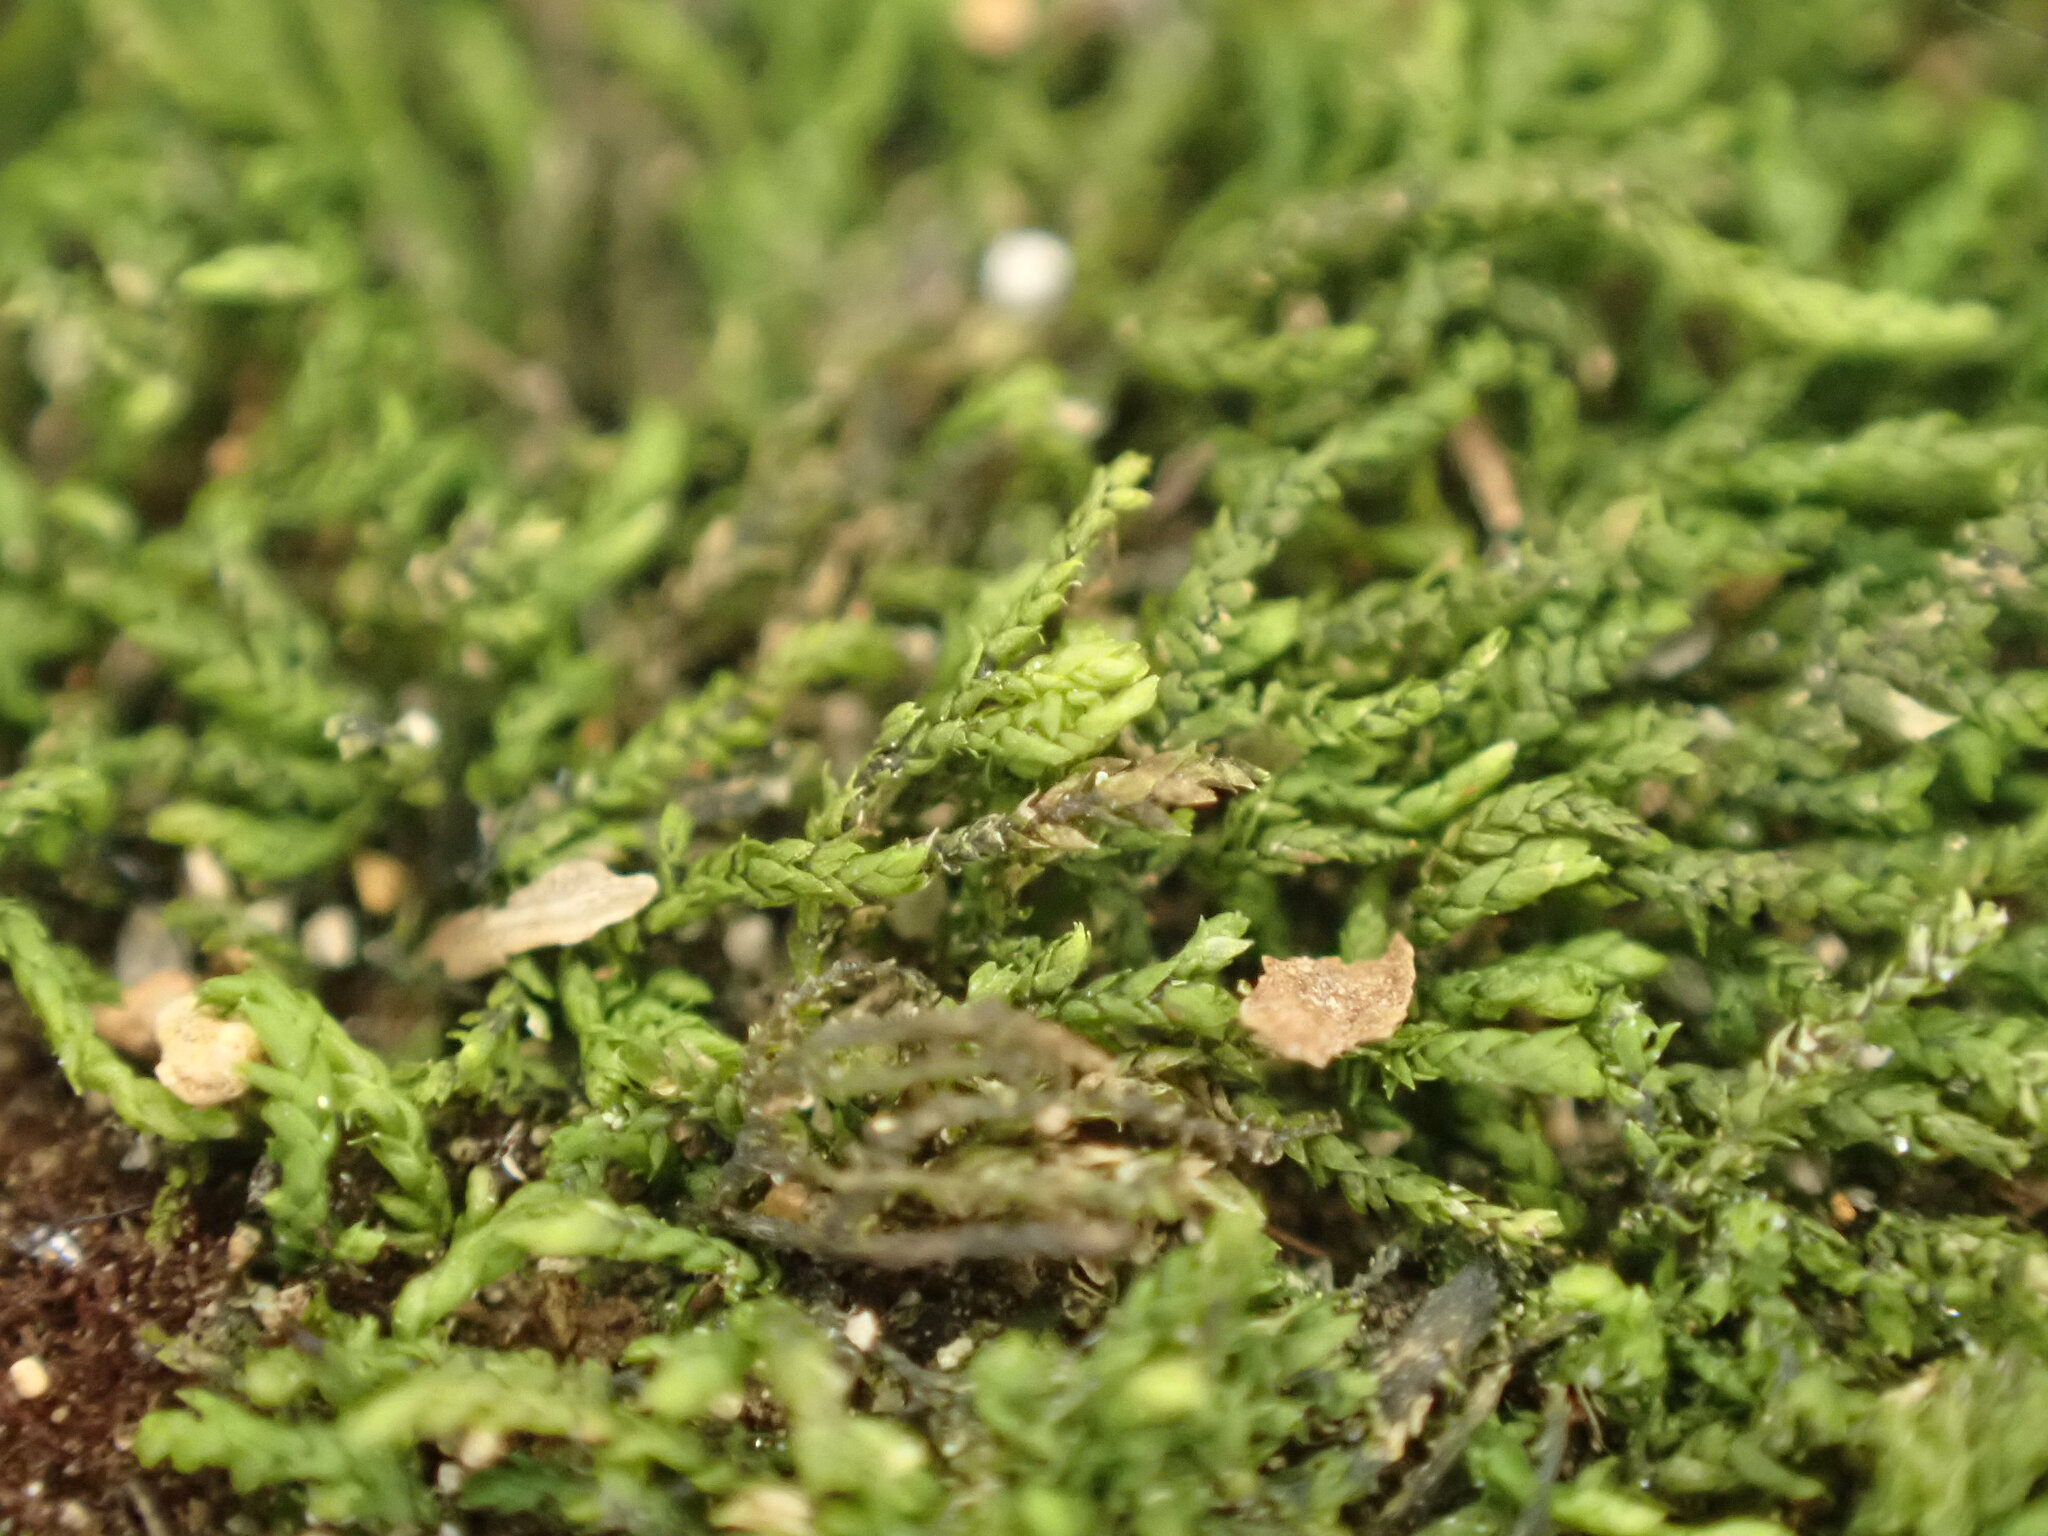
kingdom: Plantae
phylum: Bryophyta
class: Bryopsida
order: Hypnales
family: Lembophyllaceae
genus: Heterocladium
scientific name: Heterocladium macounii
